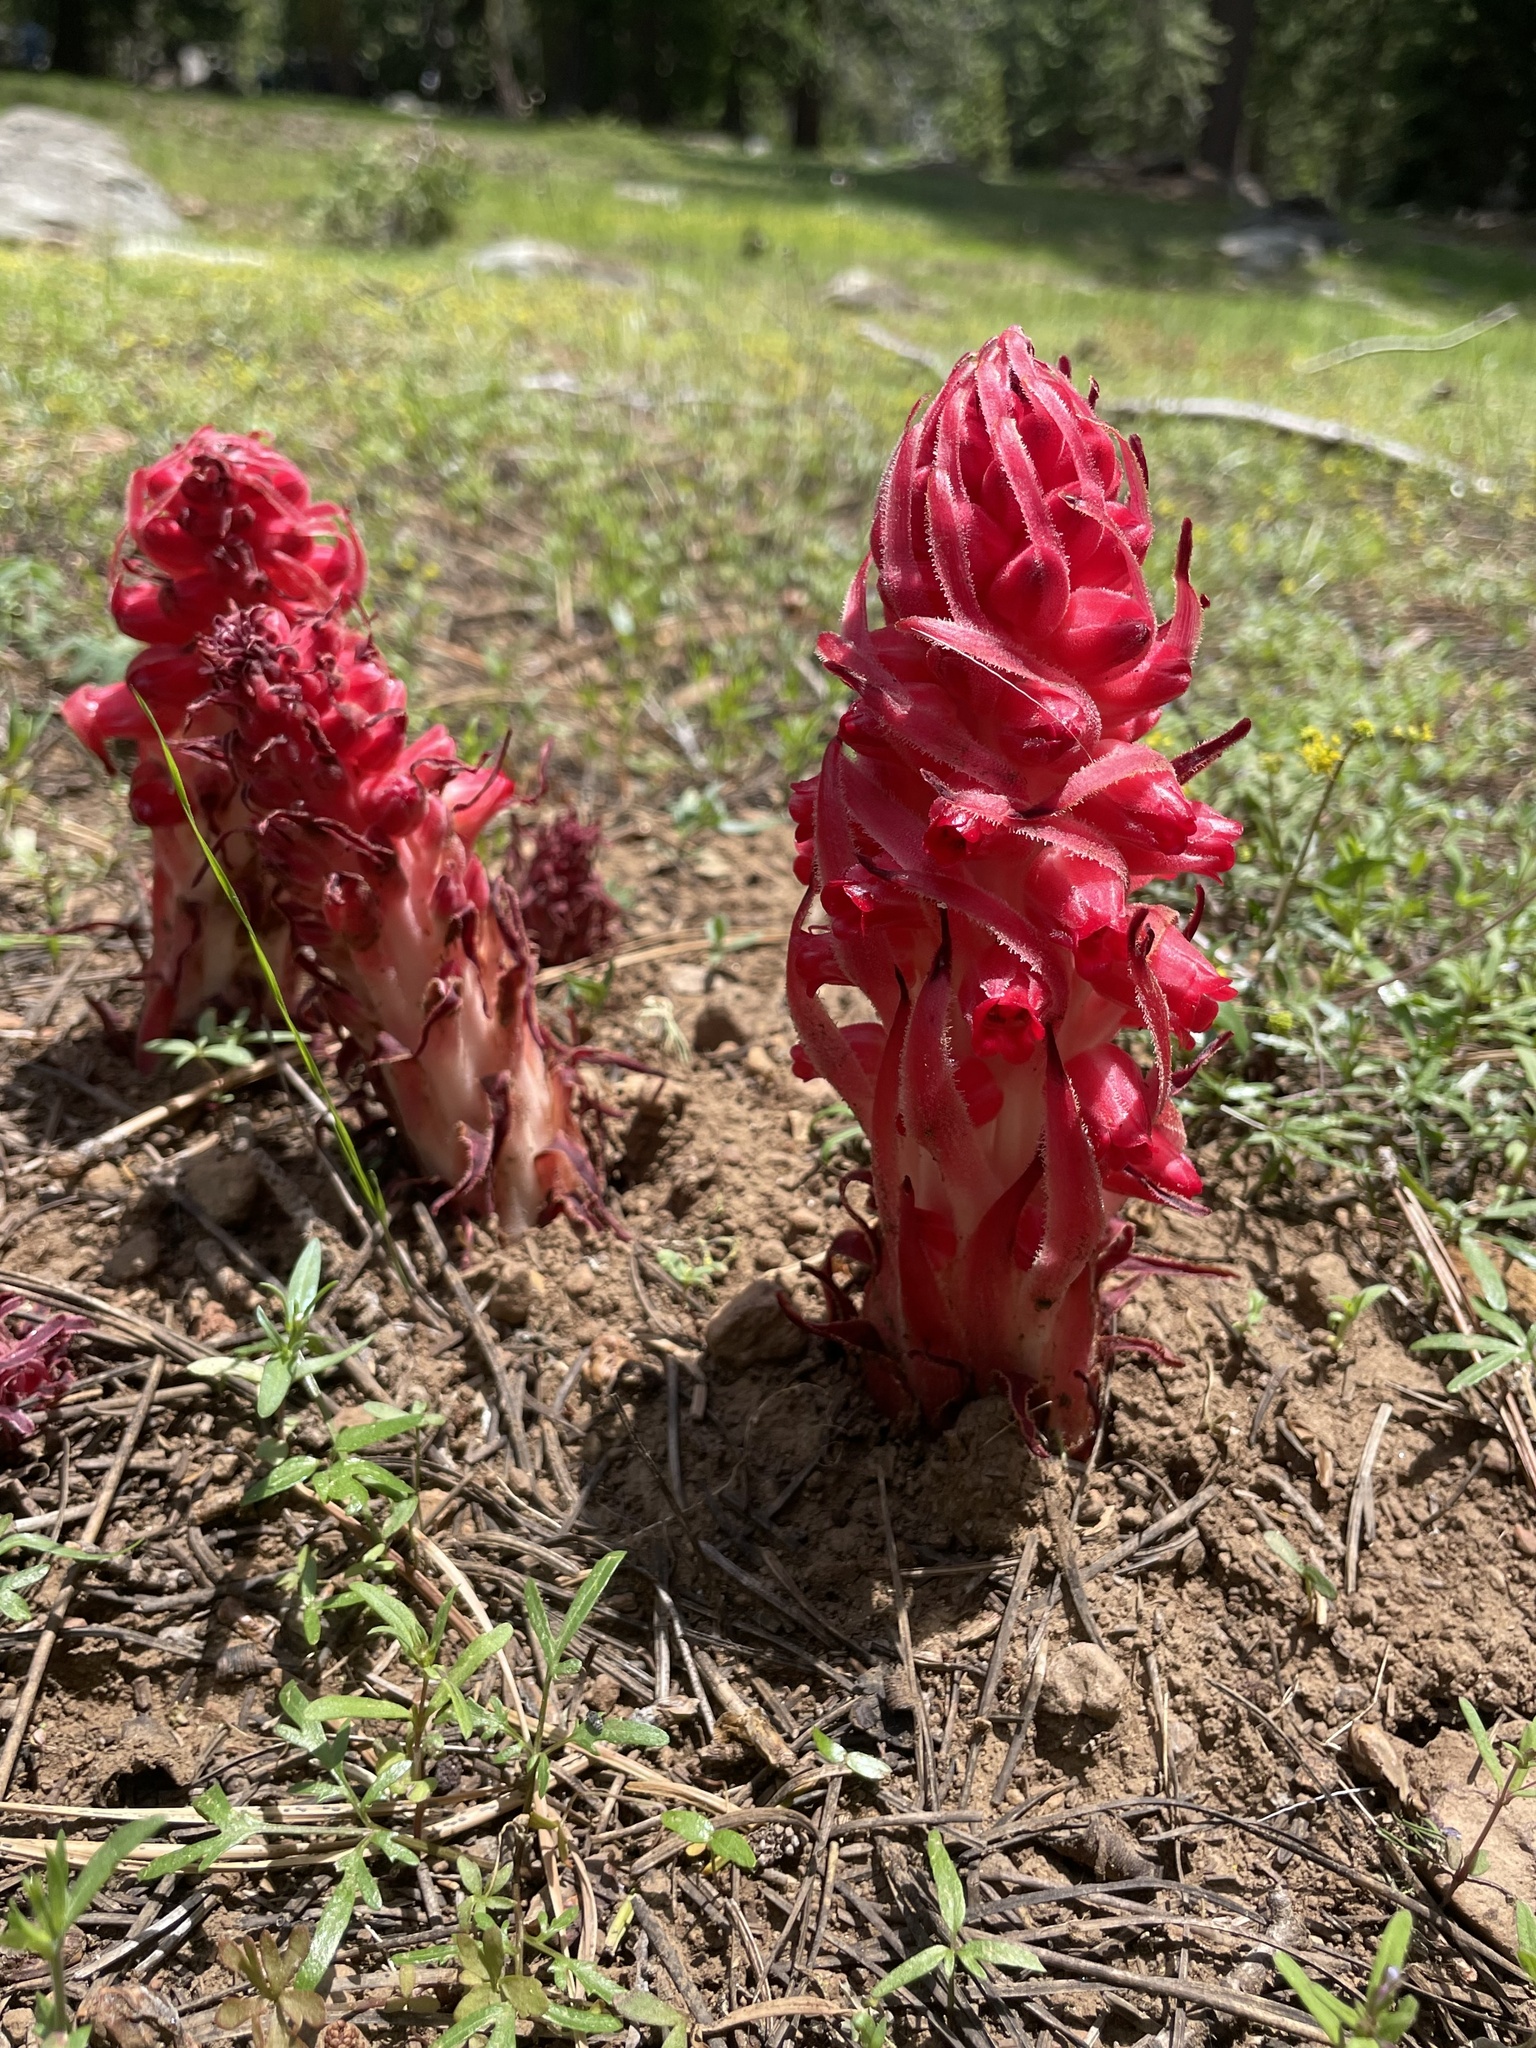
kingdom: Plantae
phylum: Tracheophyta
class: Magnoliopsida
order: Ericales
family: Ericaceae
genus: Sarcodes
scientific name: Sarcodes sanguinea
